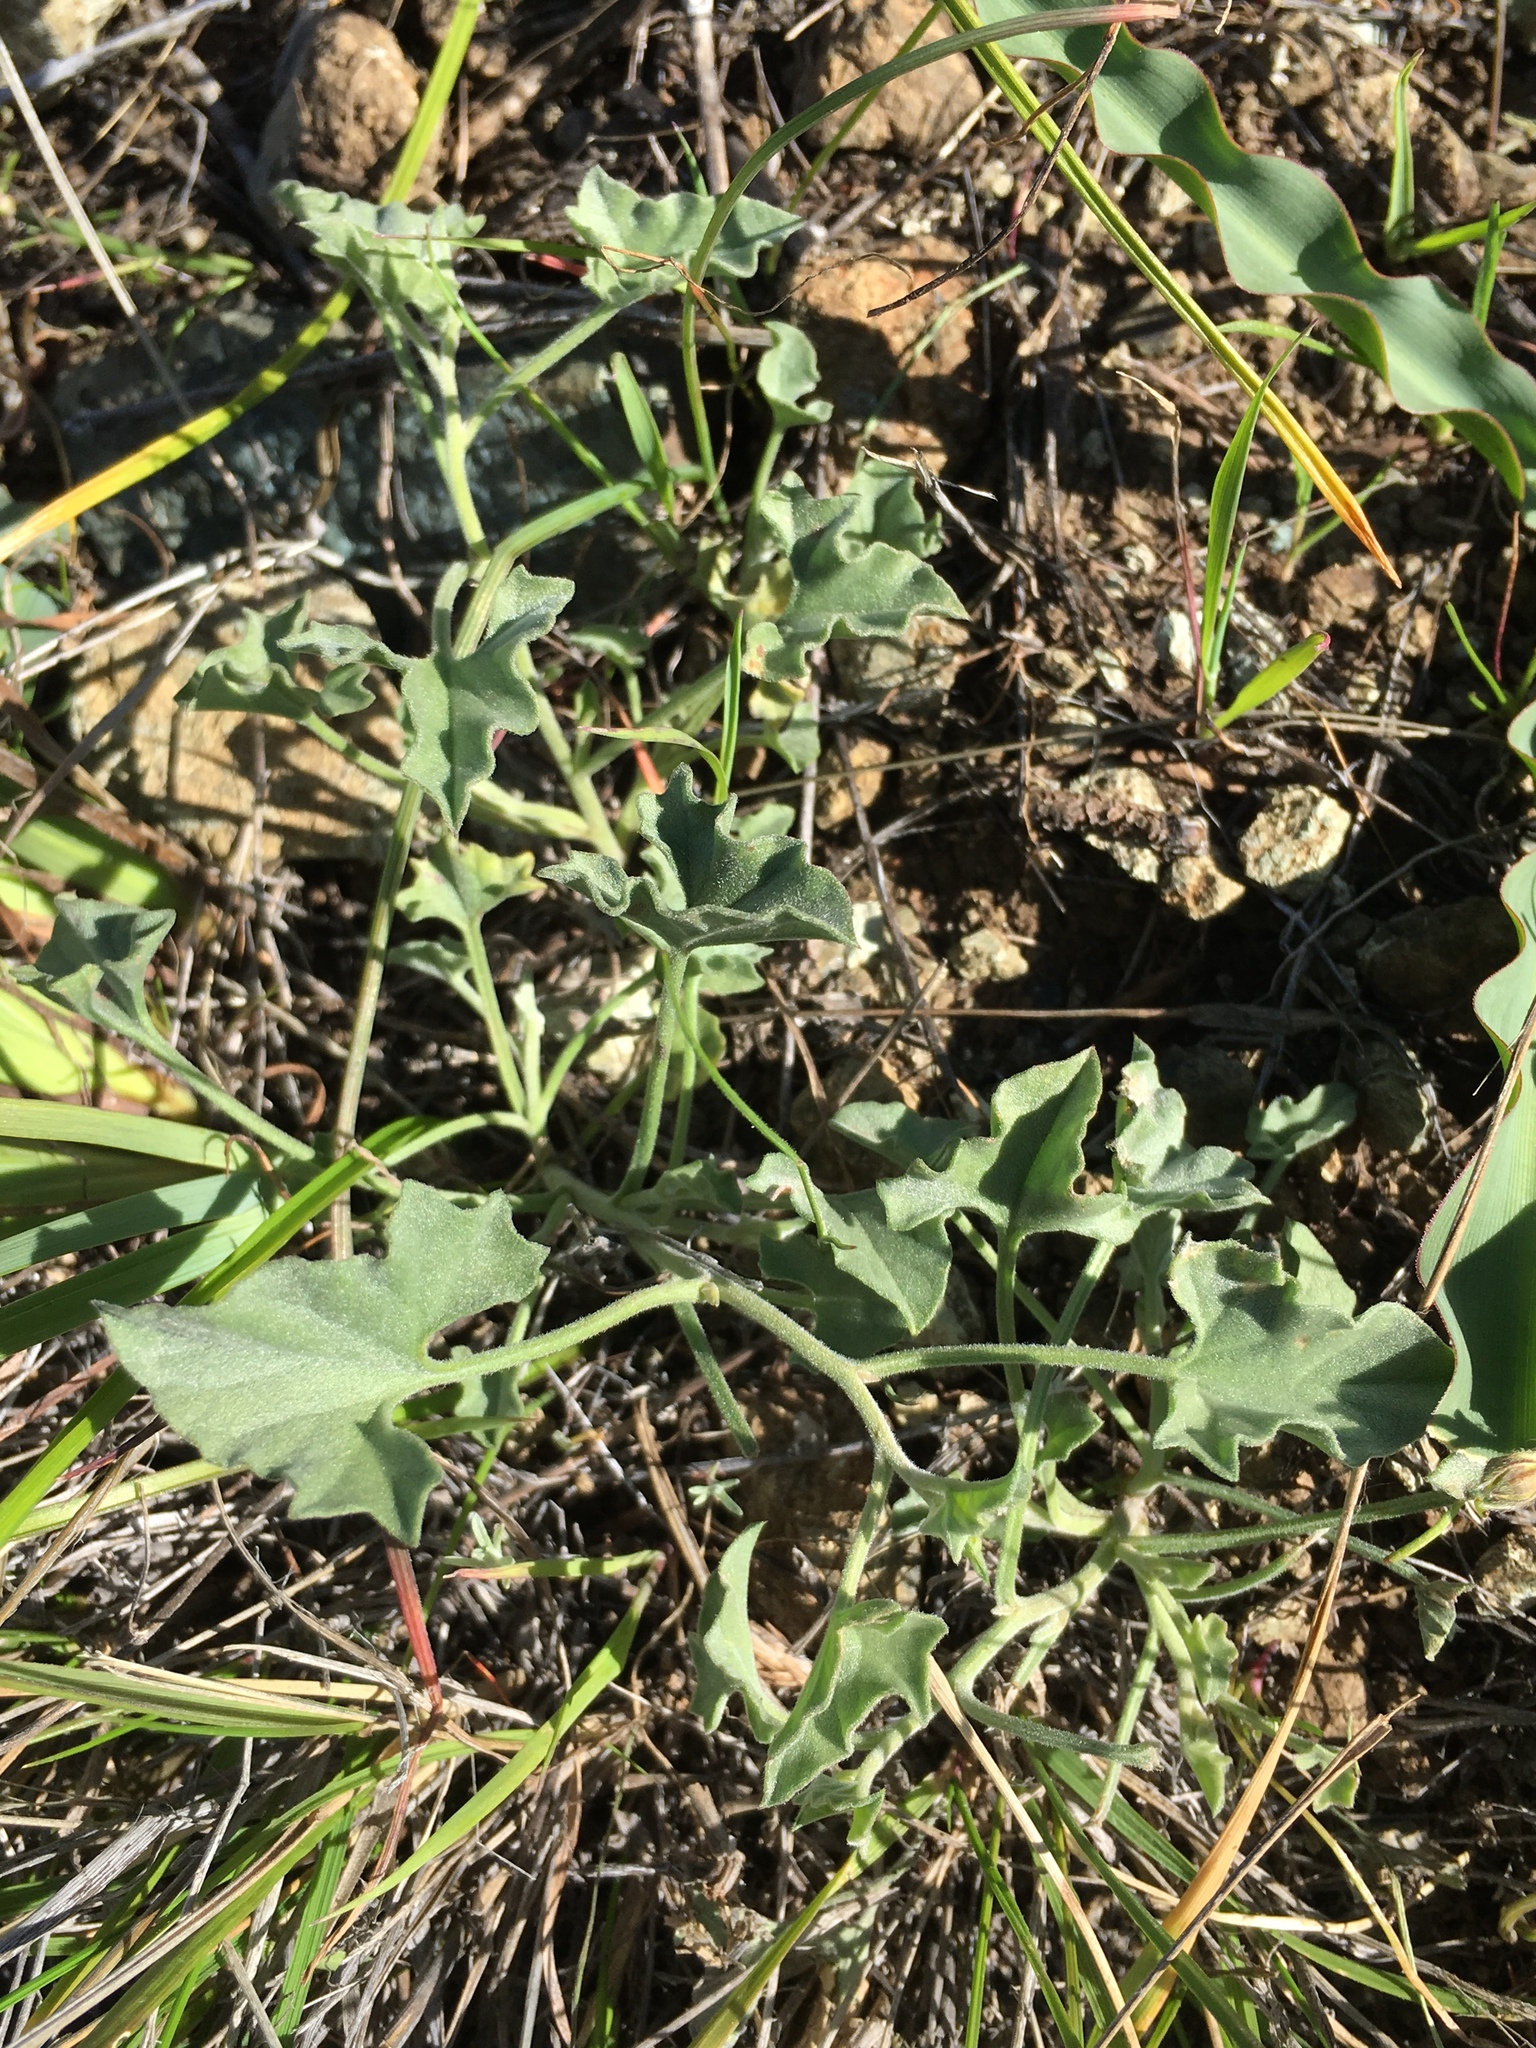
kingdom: Plantae
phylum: Tracheophyta
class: Magnoliopsida
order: Solanales
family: Convolvulaceae
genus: Calystegia
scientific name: Calystegia collina
